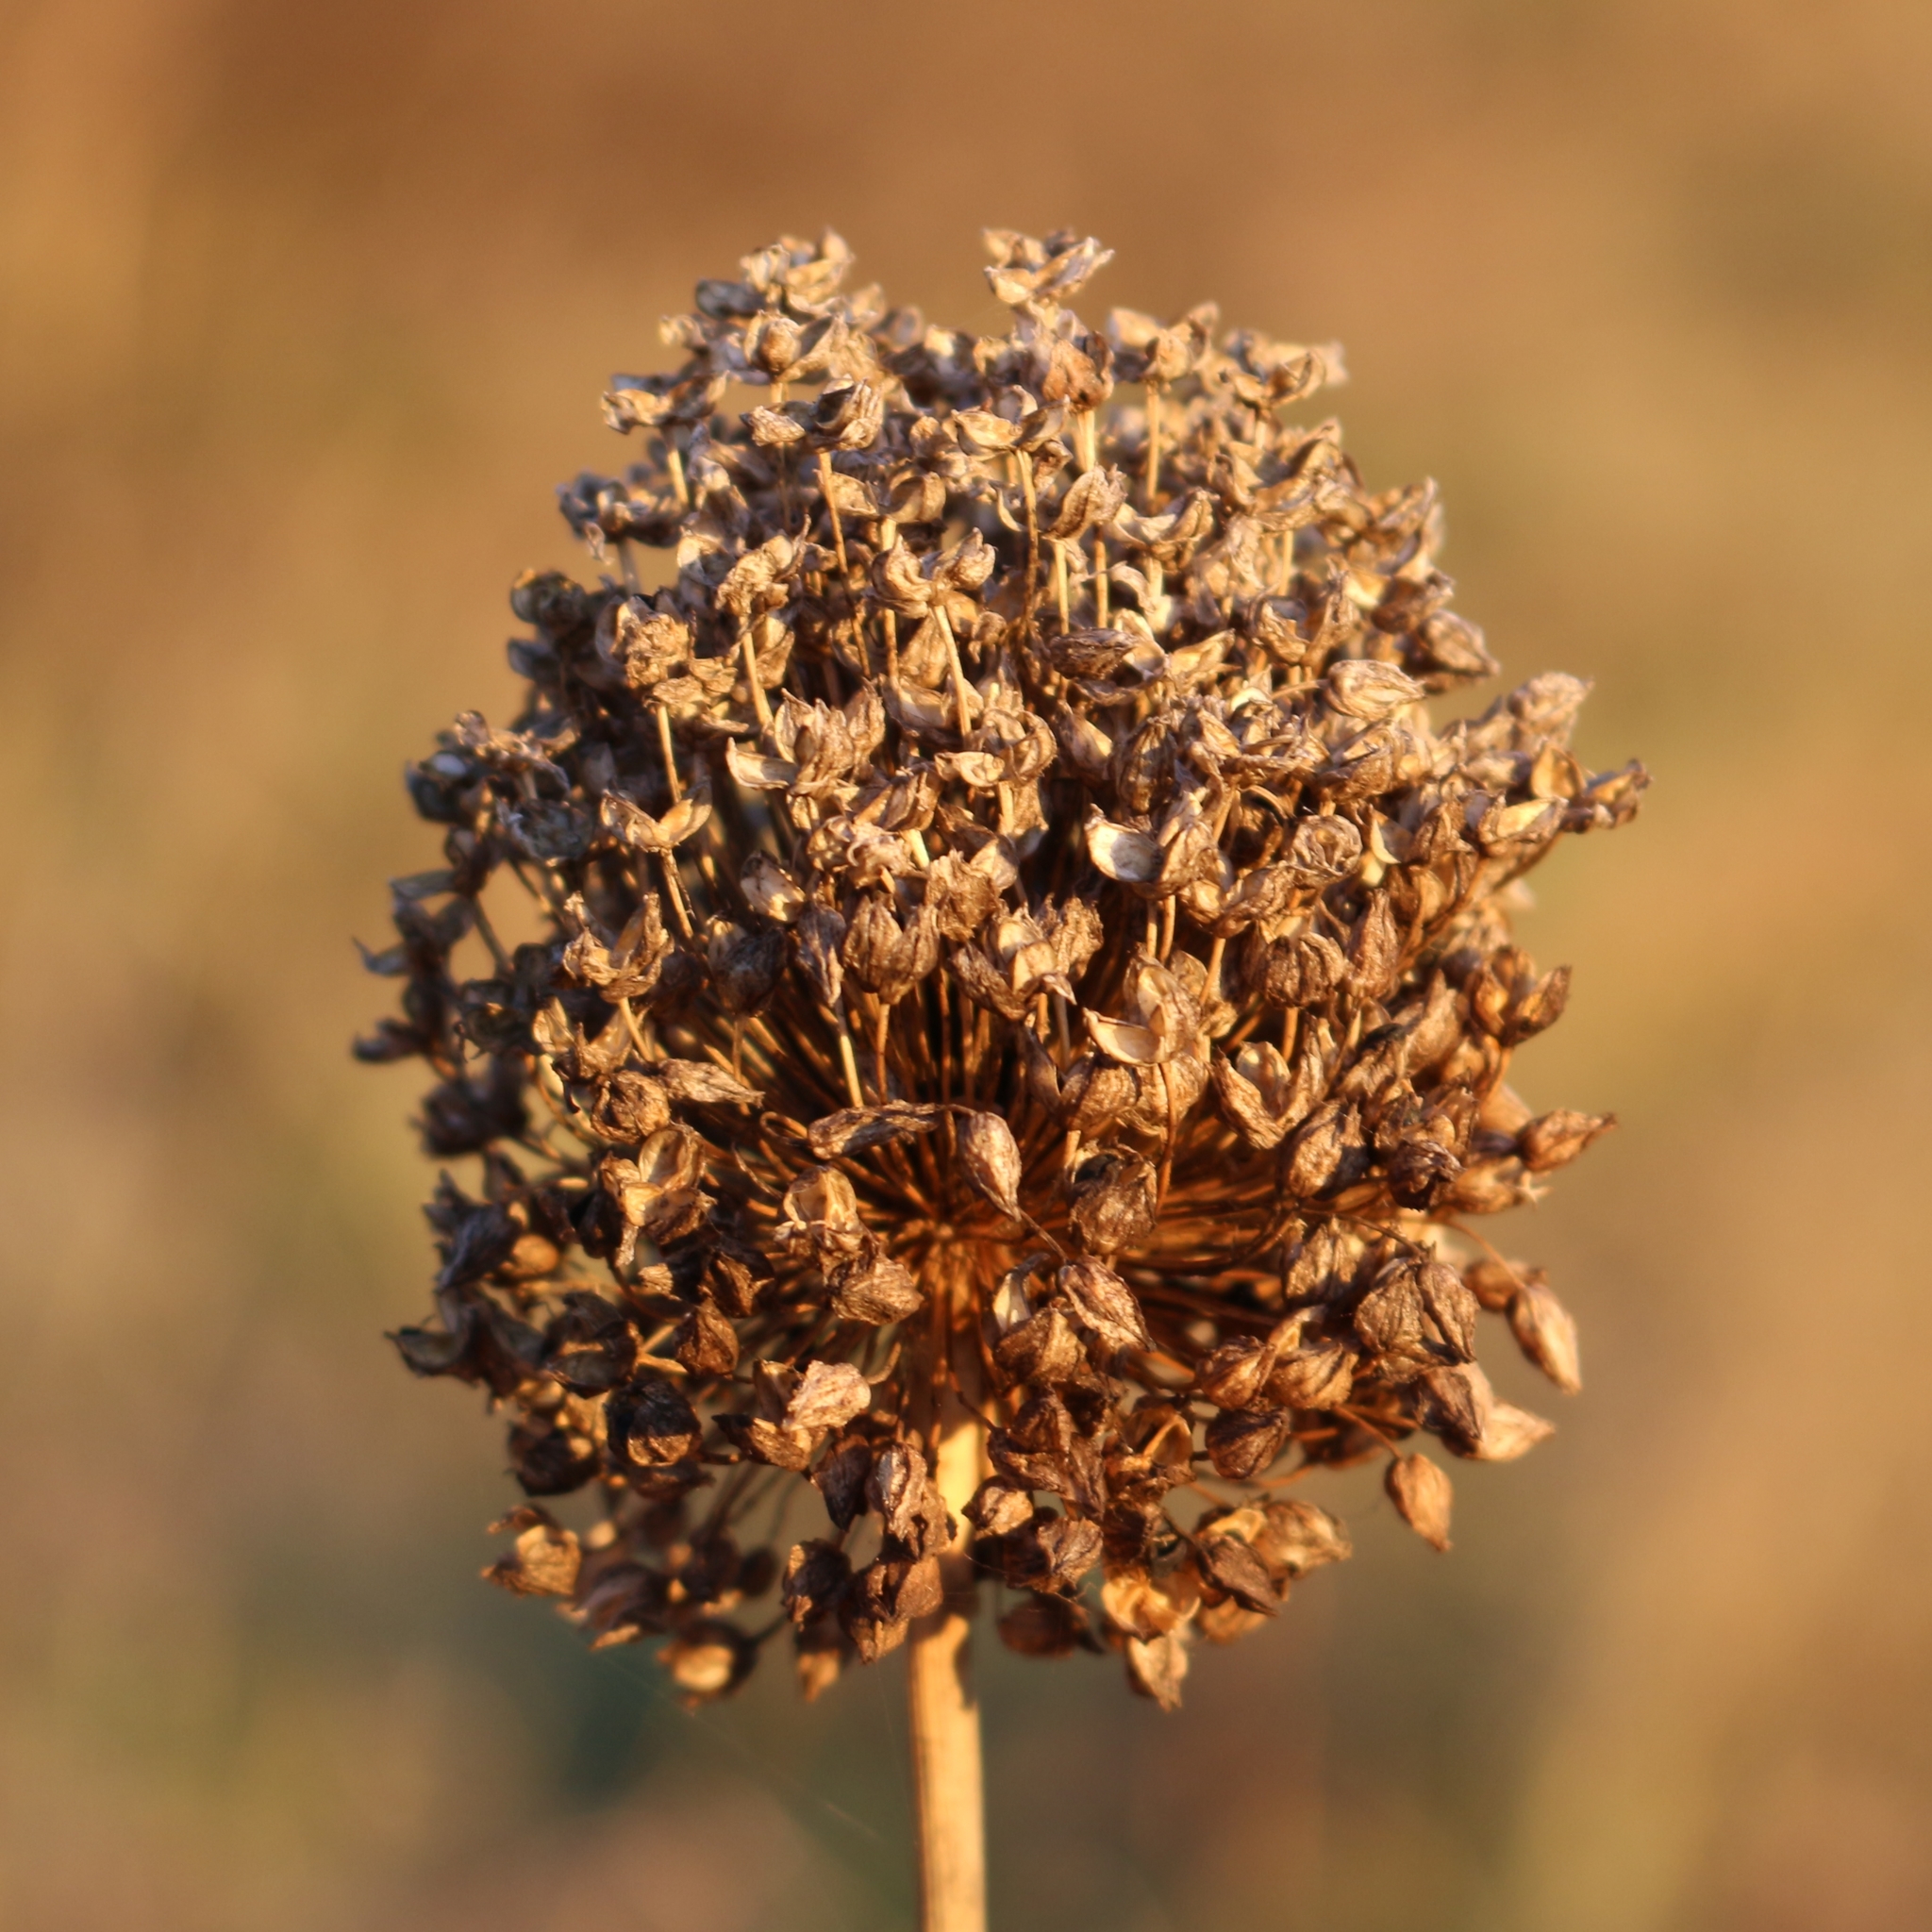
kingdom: Plantae
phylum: Tracheophyta
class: Liliopsida
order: Asparagales
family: Amaryllidaceae
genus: Allium
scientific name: Allium rotundum
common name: Sand leek
